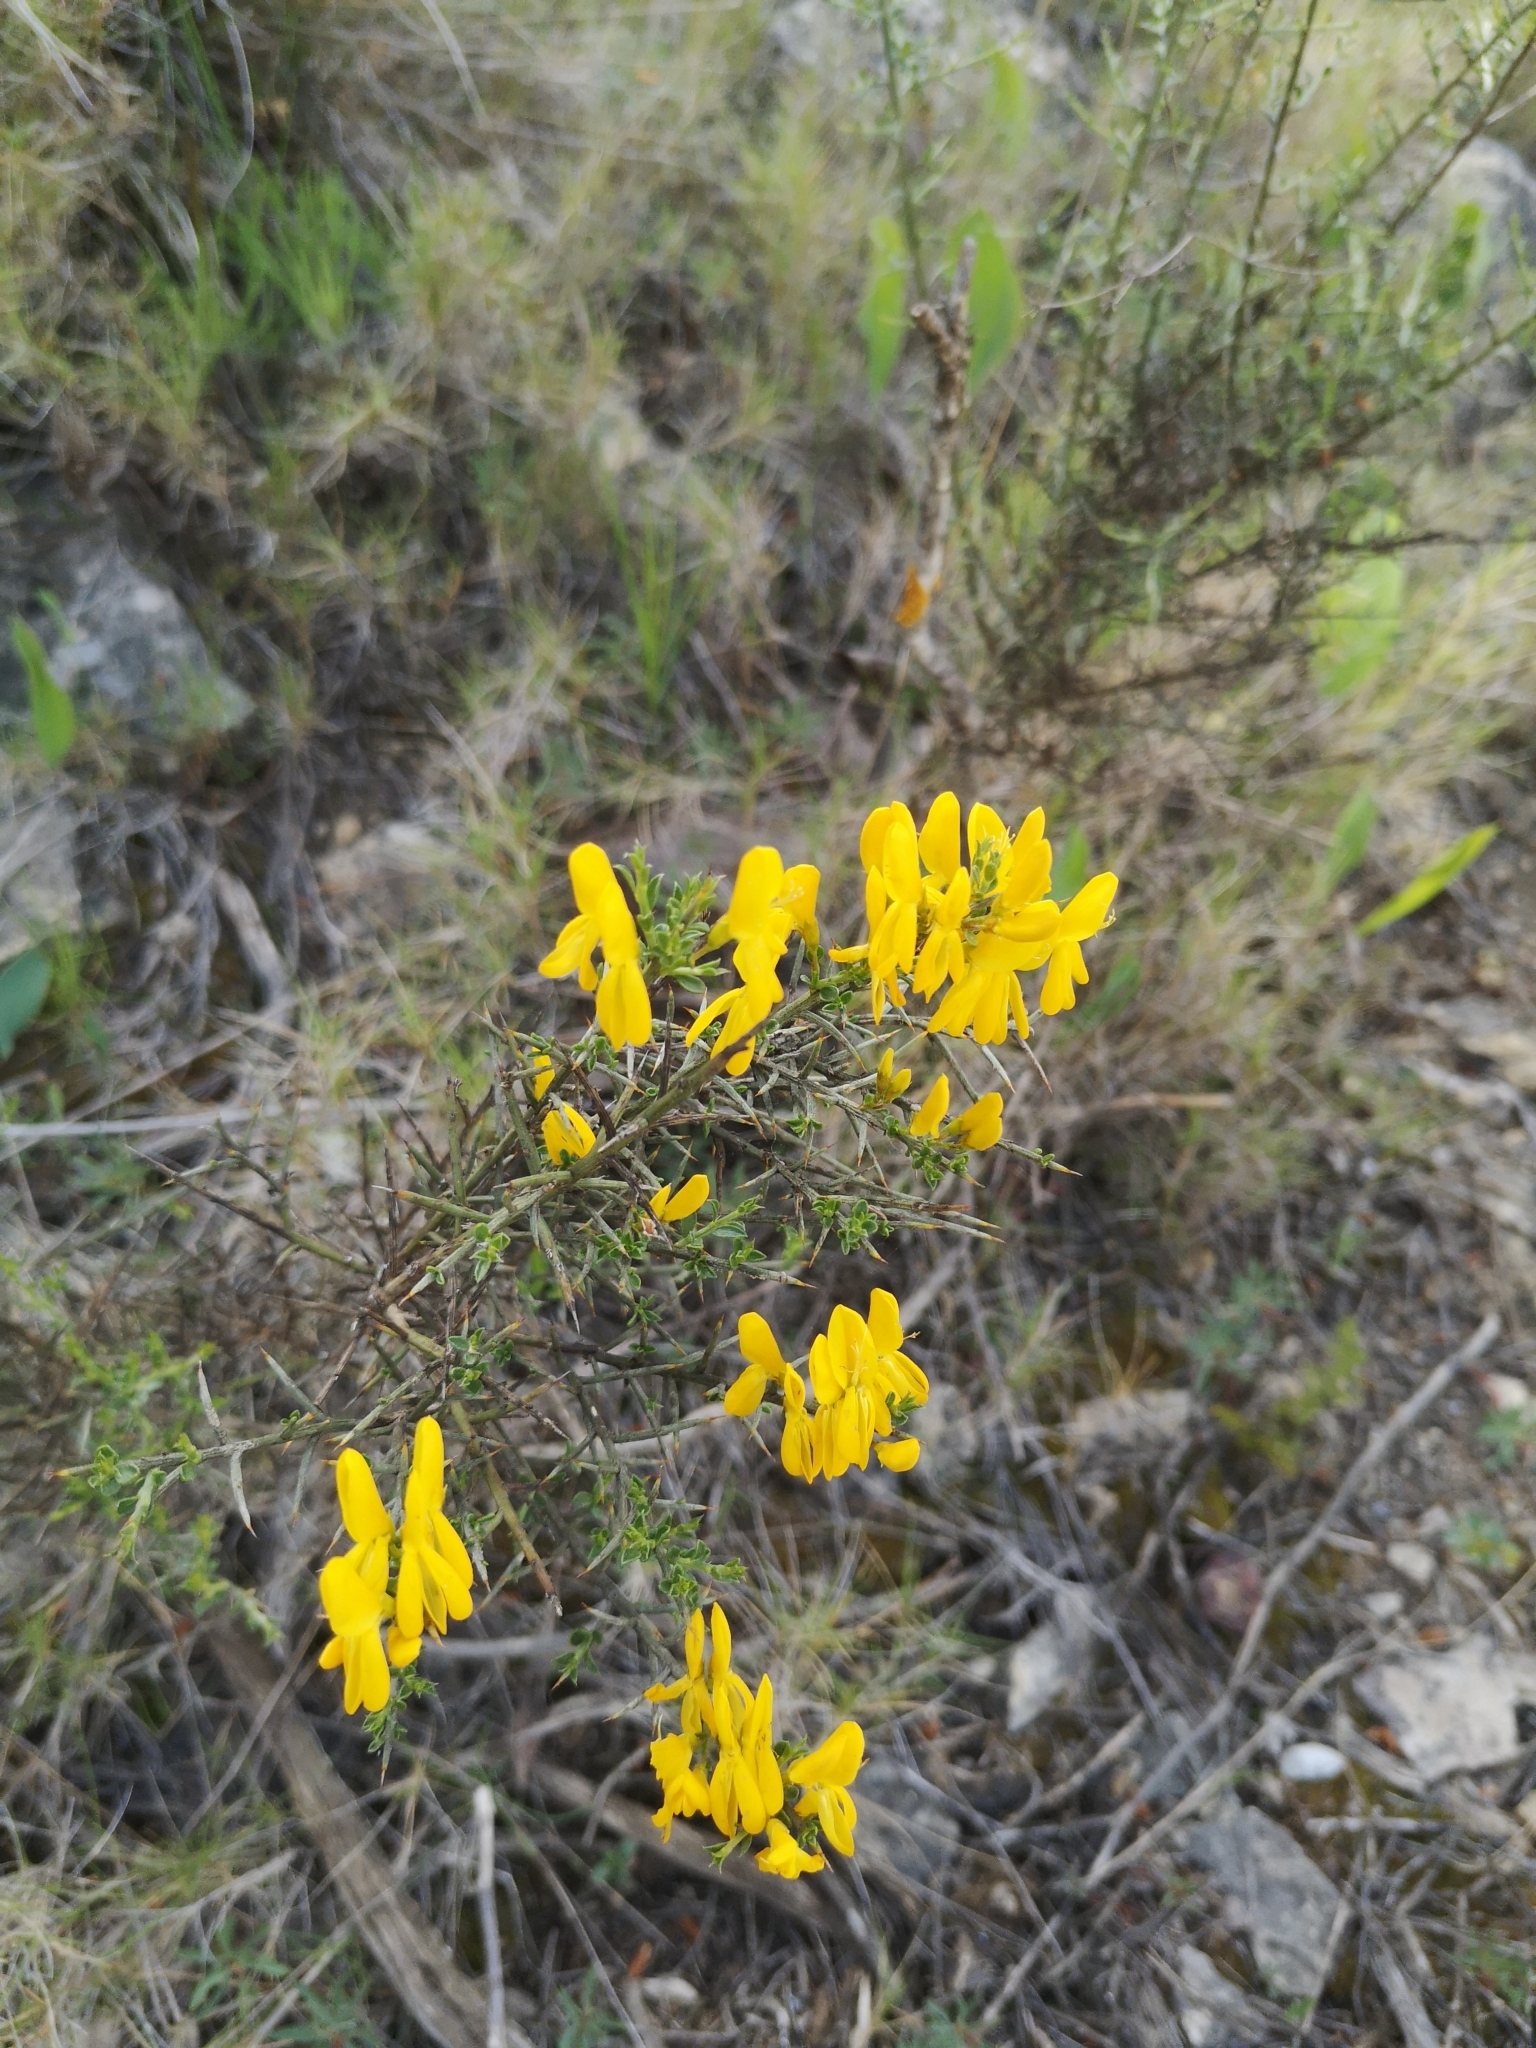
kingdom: Plantae
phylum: Tracheophyta
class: Magnoliopsida
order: Fabales
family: Fabaceae
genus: Genista
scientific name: Genista scorpius
